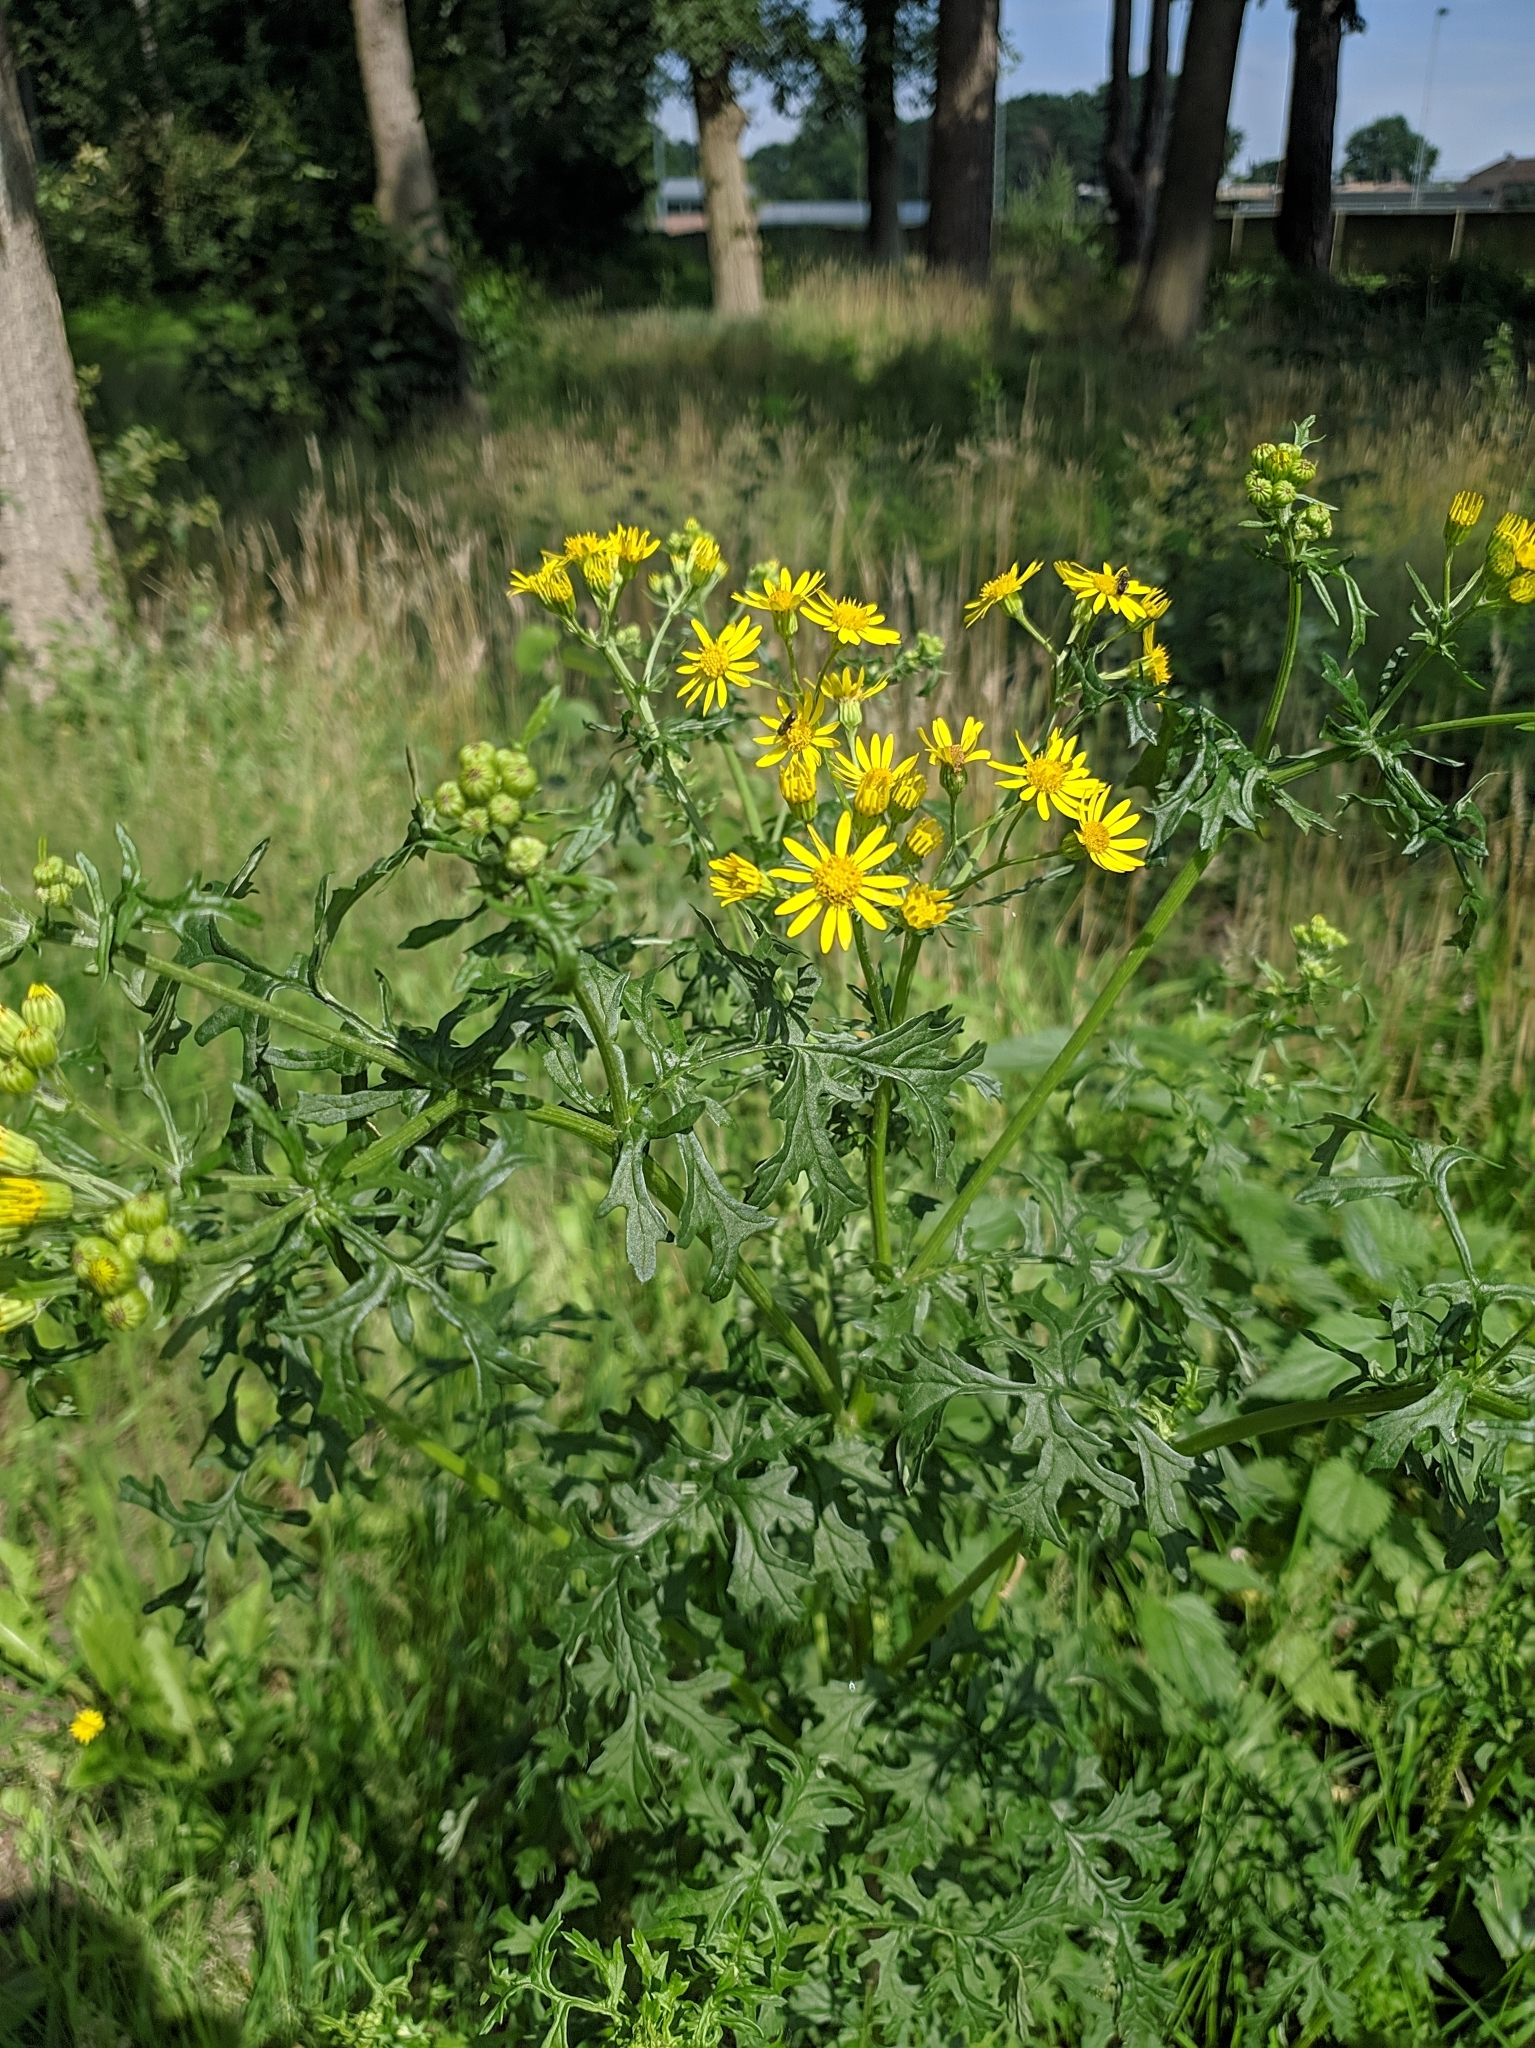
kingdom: Plantae
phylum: Tracheophyta
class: Magnoliopsida
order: Asterales
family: Asteraceae
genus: Jacobaea
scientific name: Jacobaea vulgaris
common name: Stinking willie
